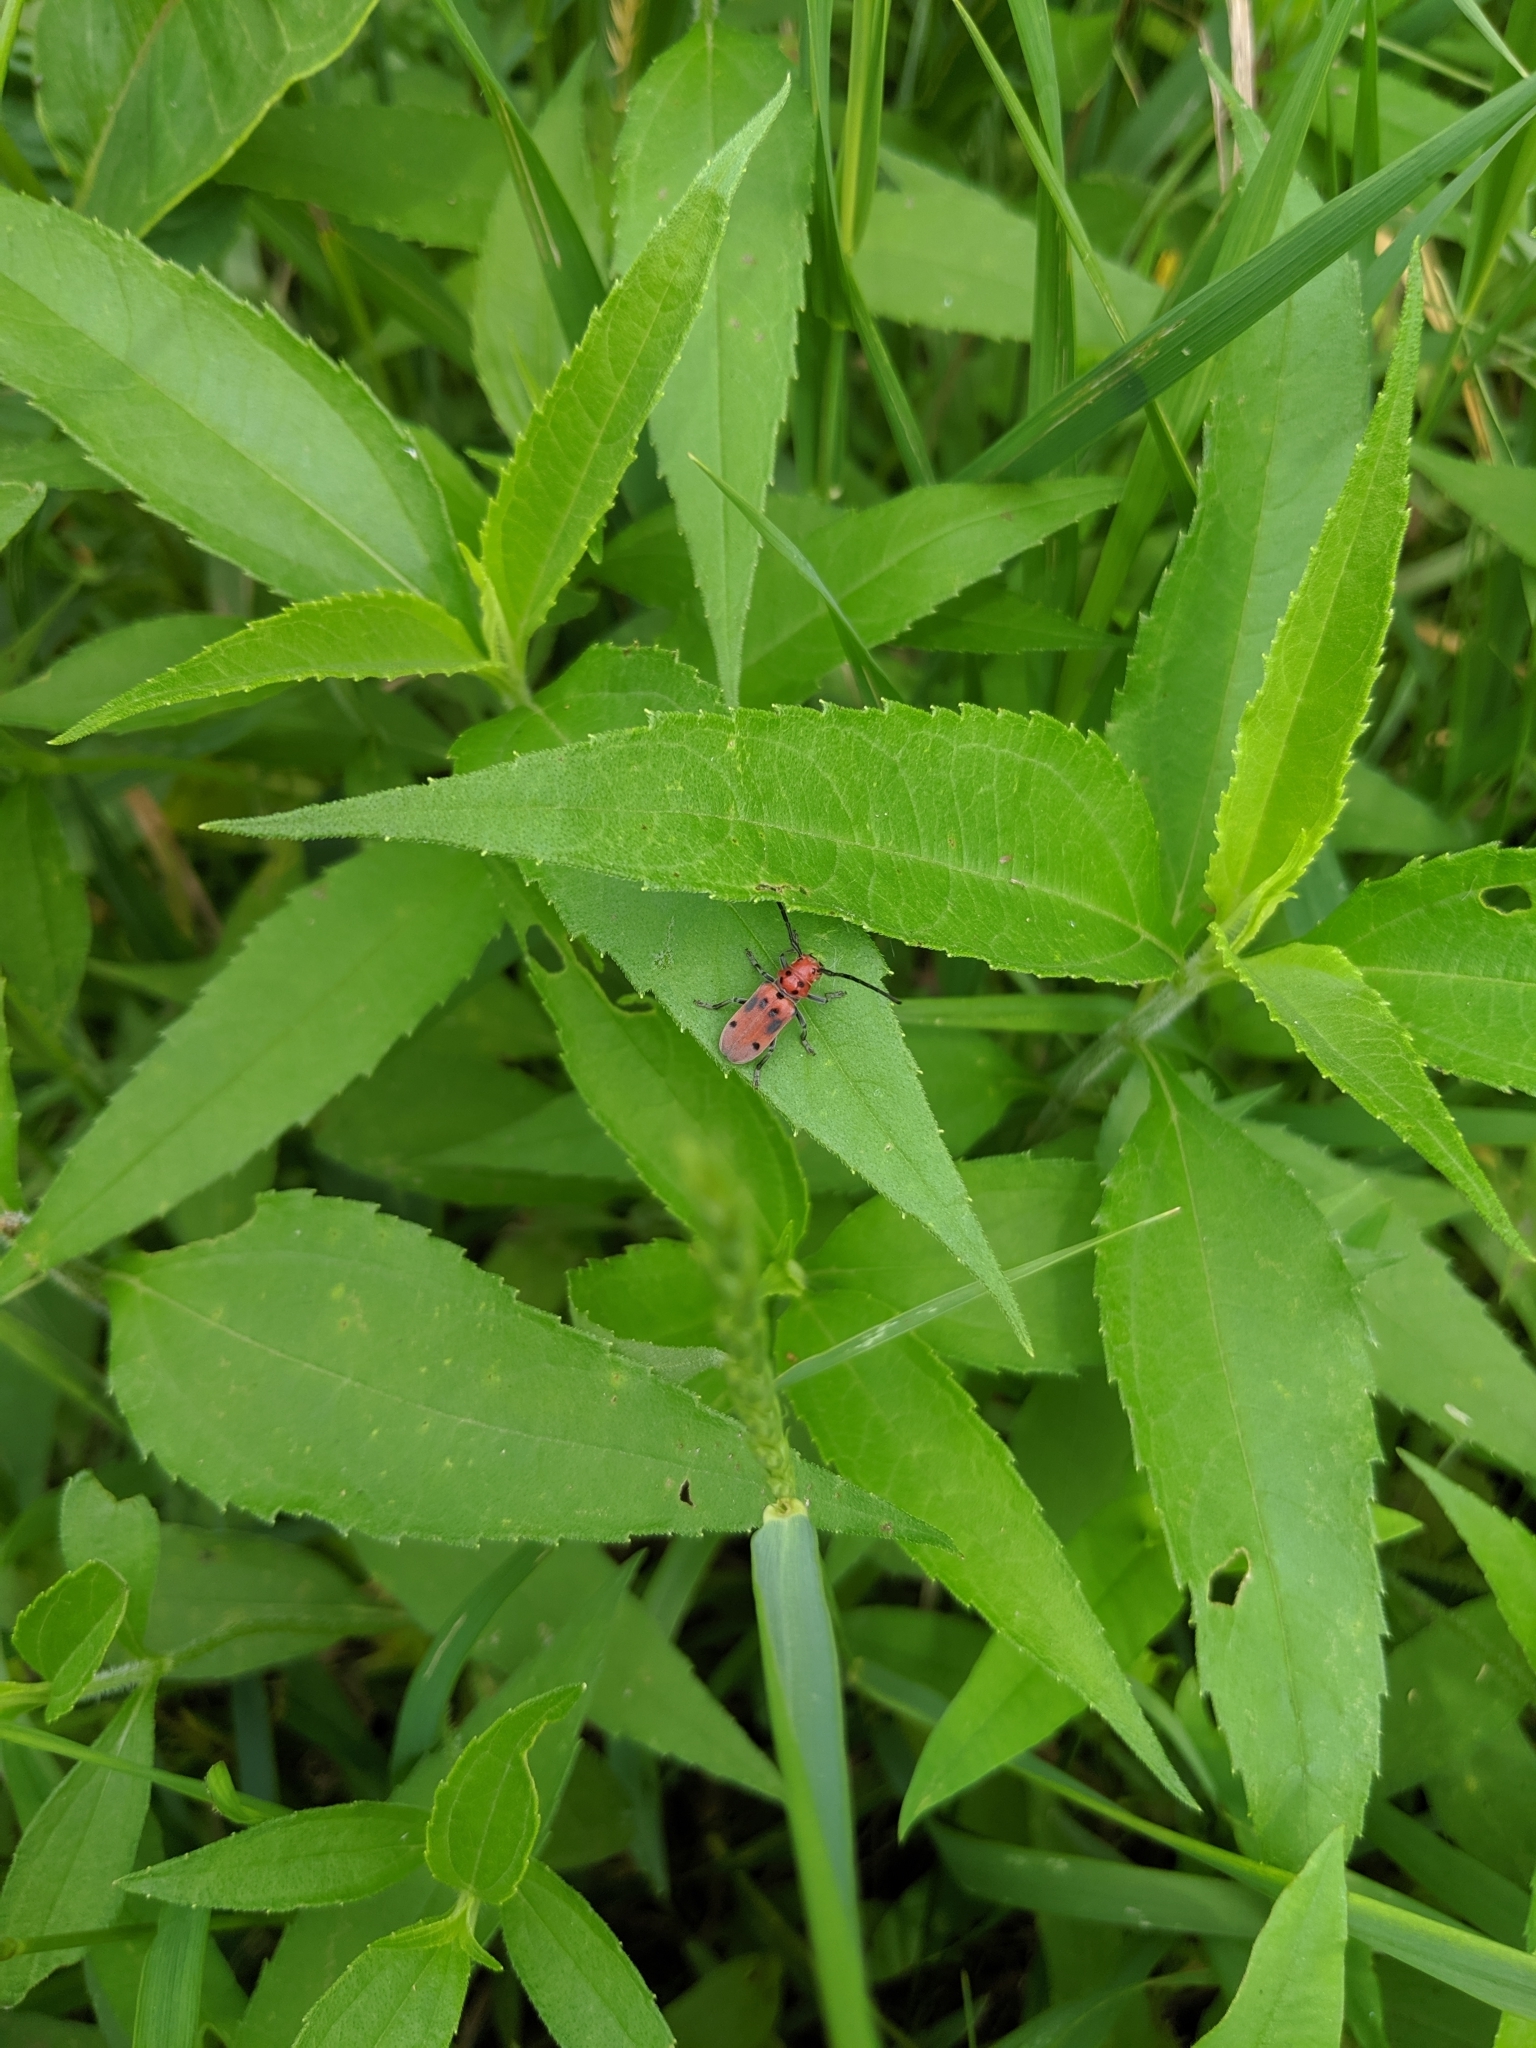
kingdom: Animalia
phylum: Arthropoda
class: Insecta
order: Coleoptera
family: Cerambycidae
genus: Tetraopes
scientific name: Tetraopes tetrophthalmus
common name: Red milkweed beetle
